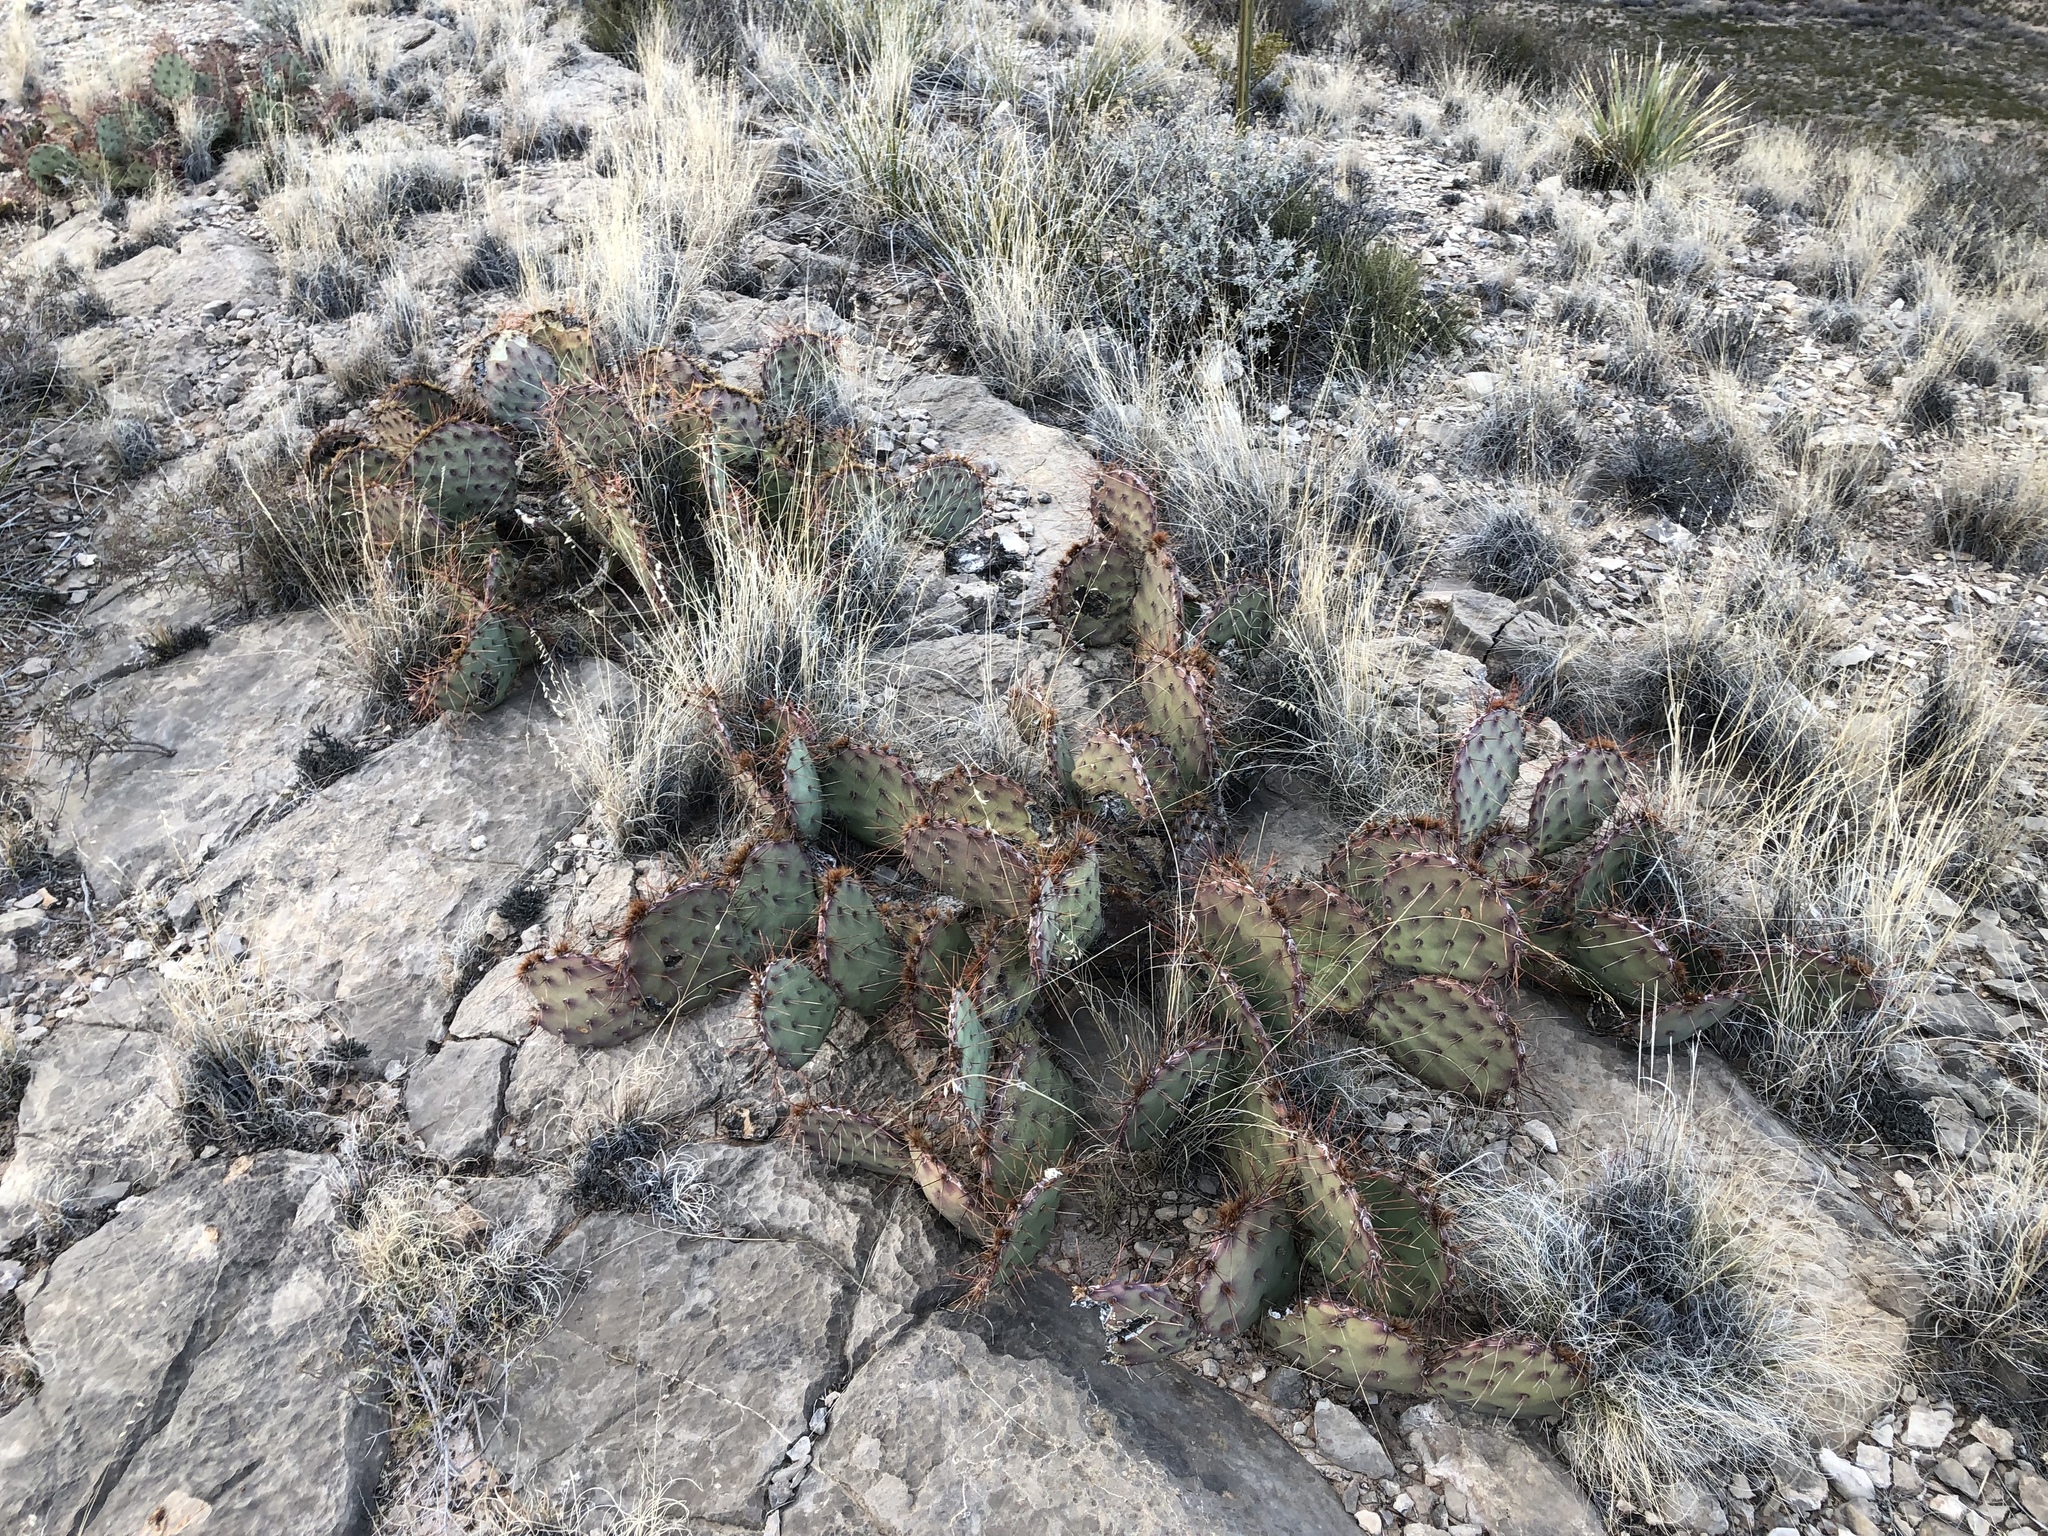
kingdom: Plantae
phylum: Tracheophyta
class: Magnoliopsida
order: Caryophyllales
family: Cactaceae
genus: Opuntia
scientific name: Opuntia phaeacantha
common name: New mexico prickly-pear
